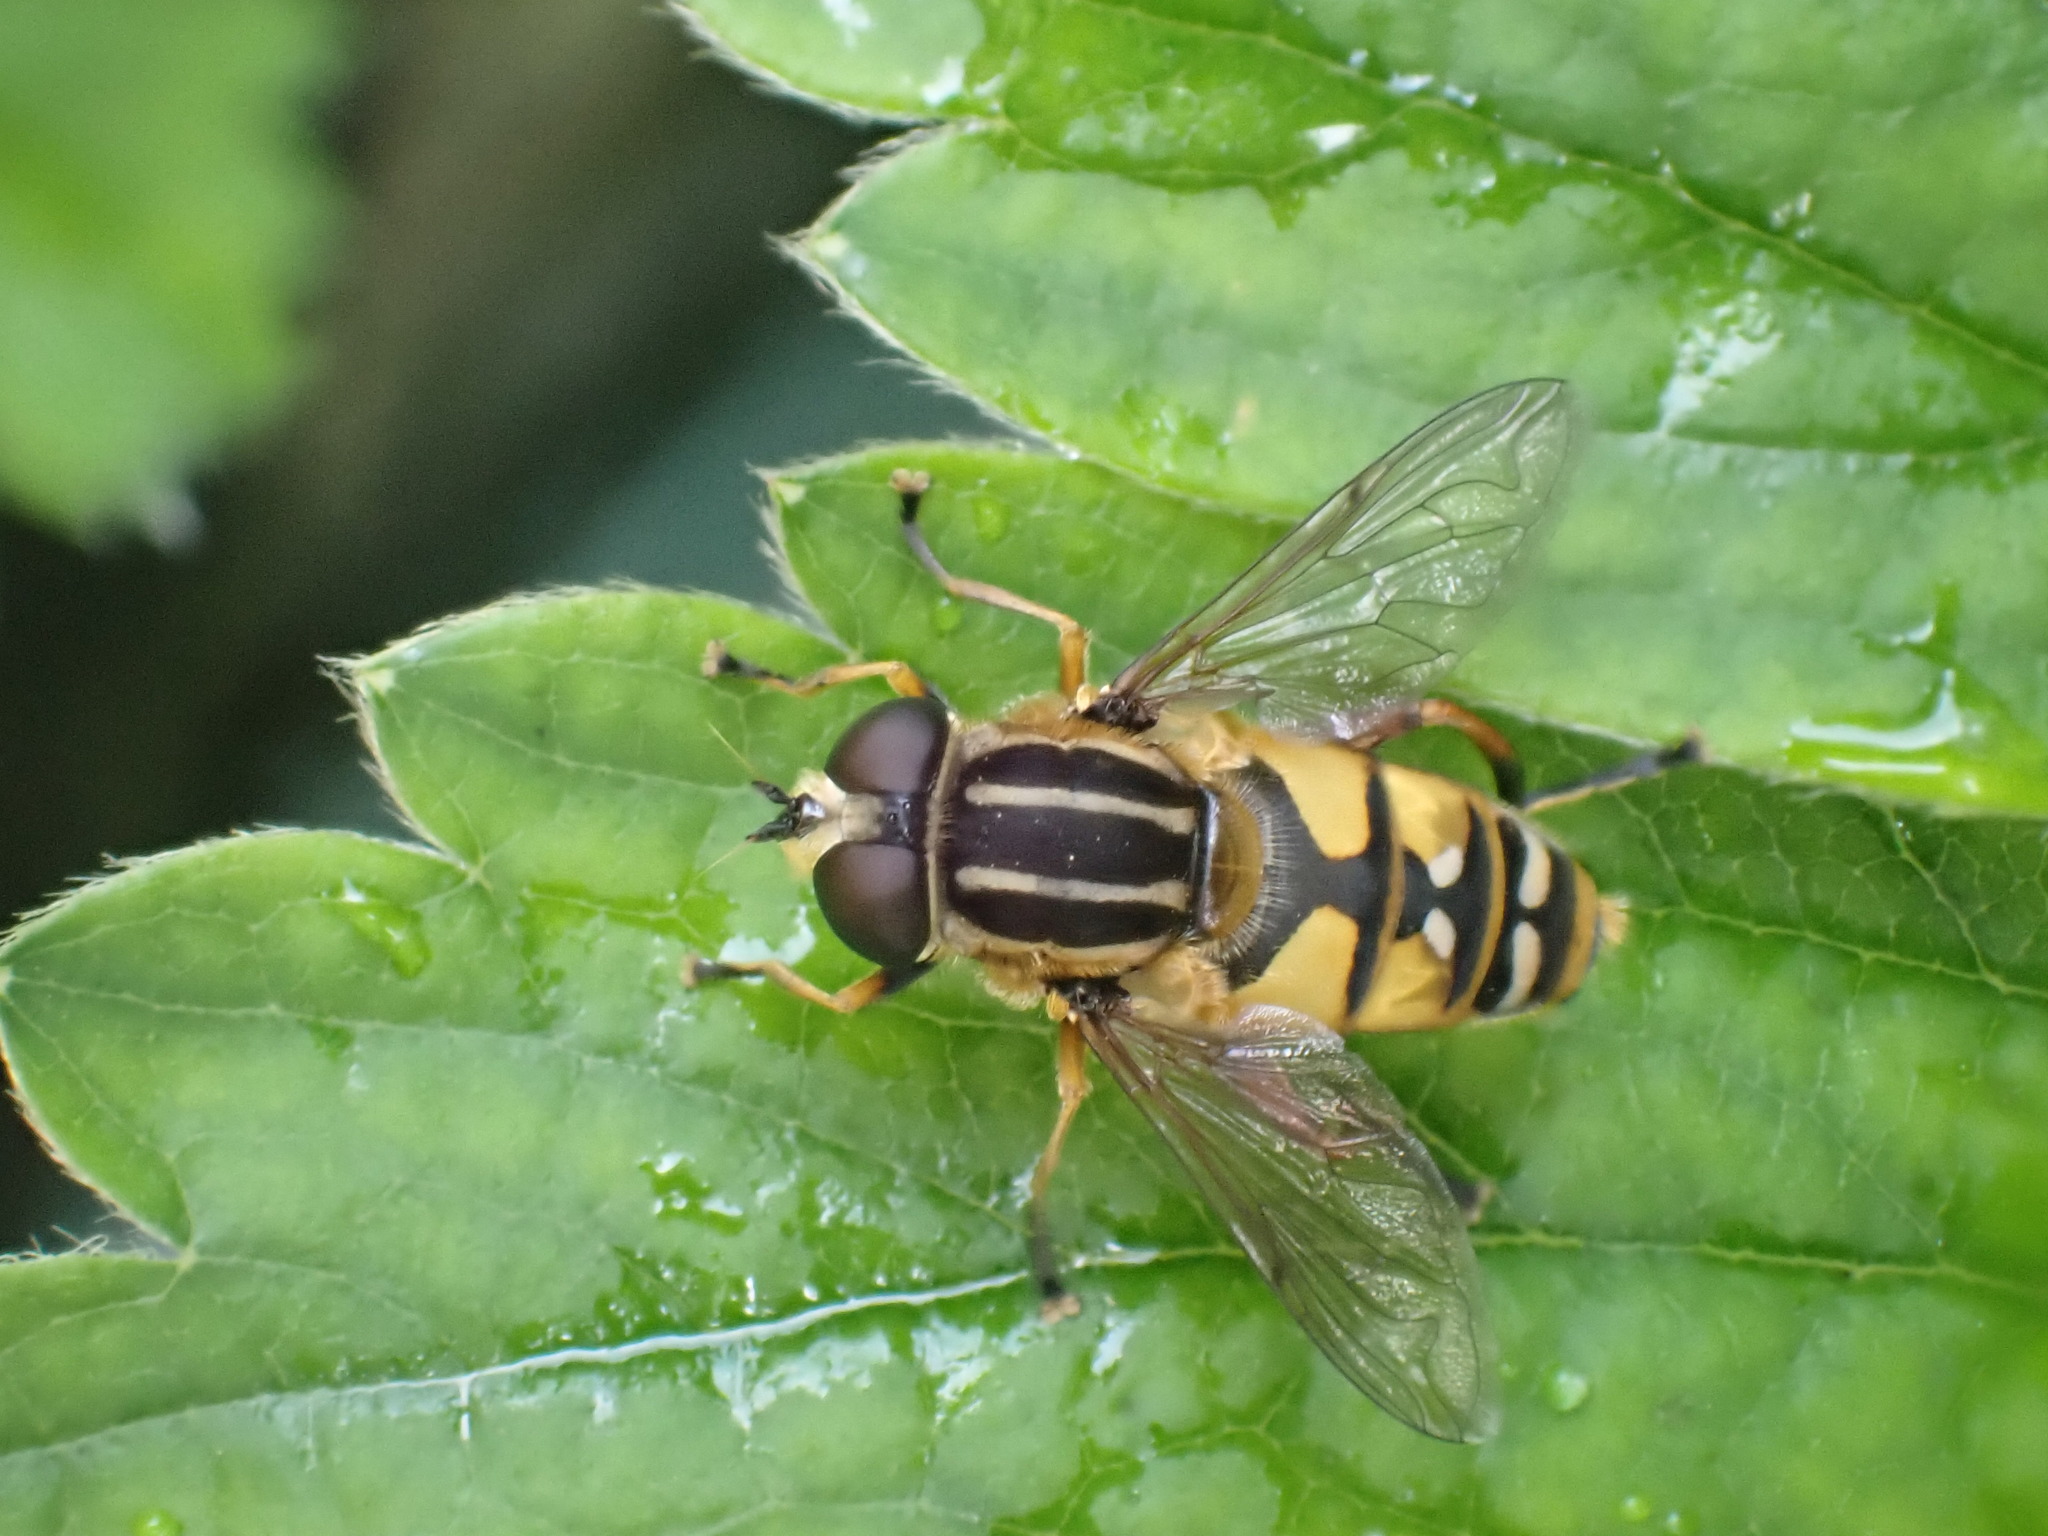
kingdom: Animalia
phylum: Arthropoda
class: Insecta
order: Diptera
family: Syrphidae
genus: Helophilus
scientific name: Helophilus pendulus
